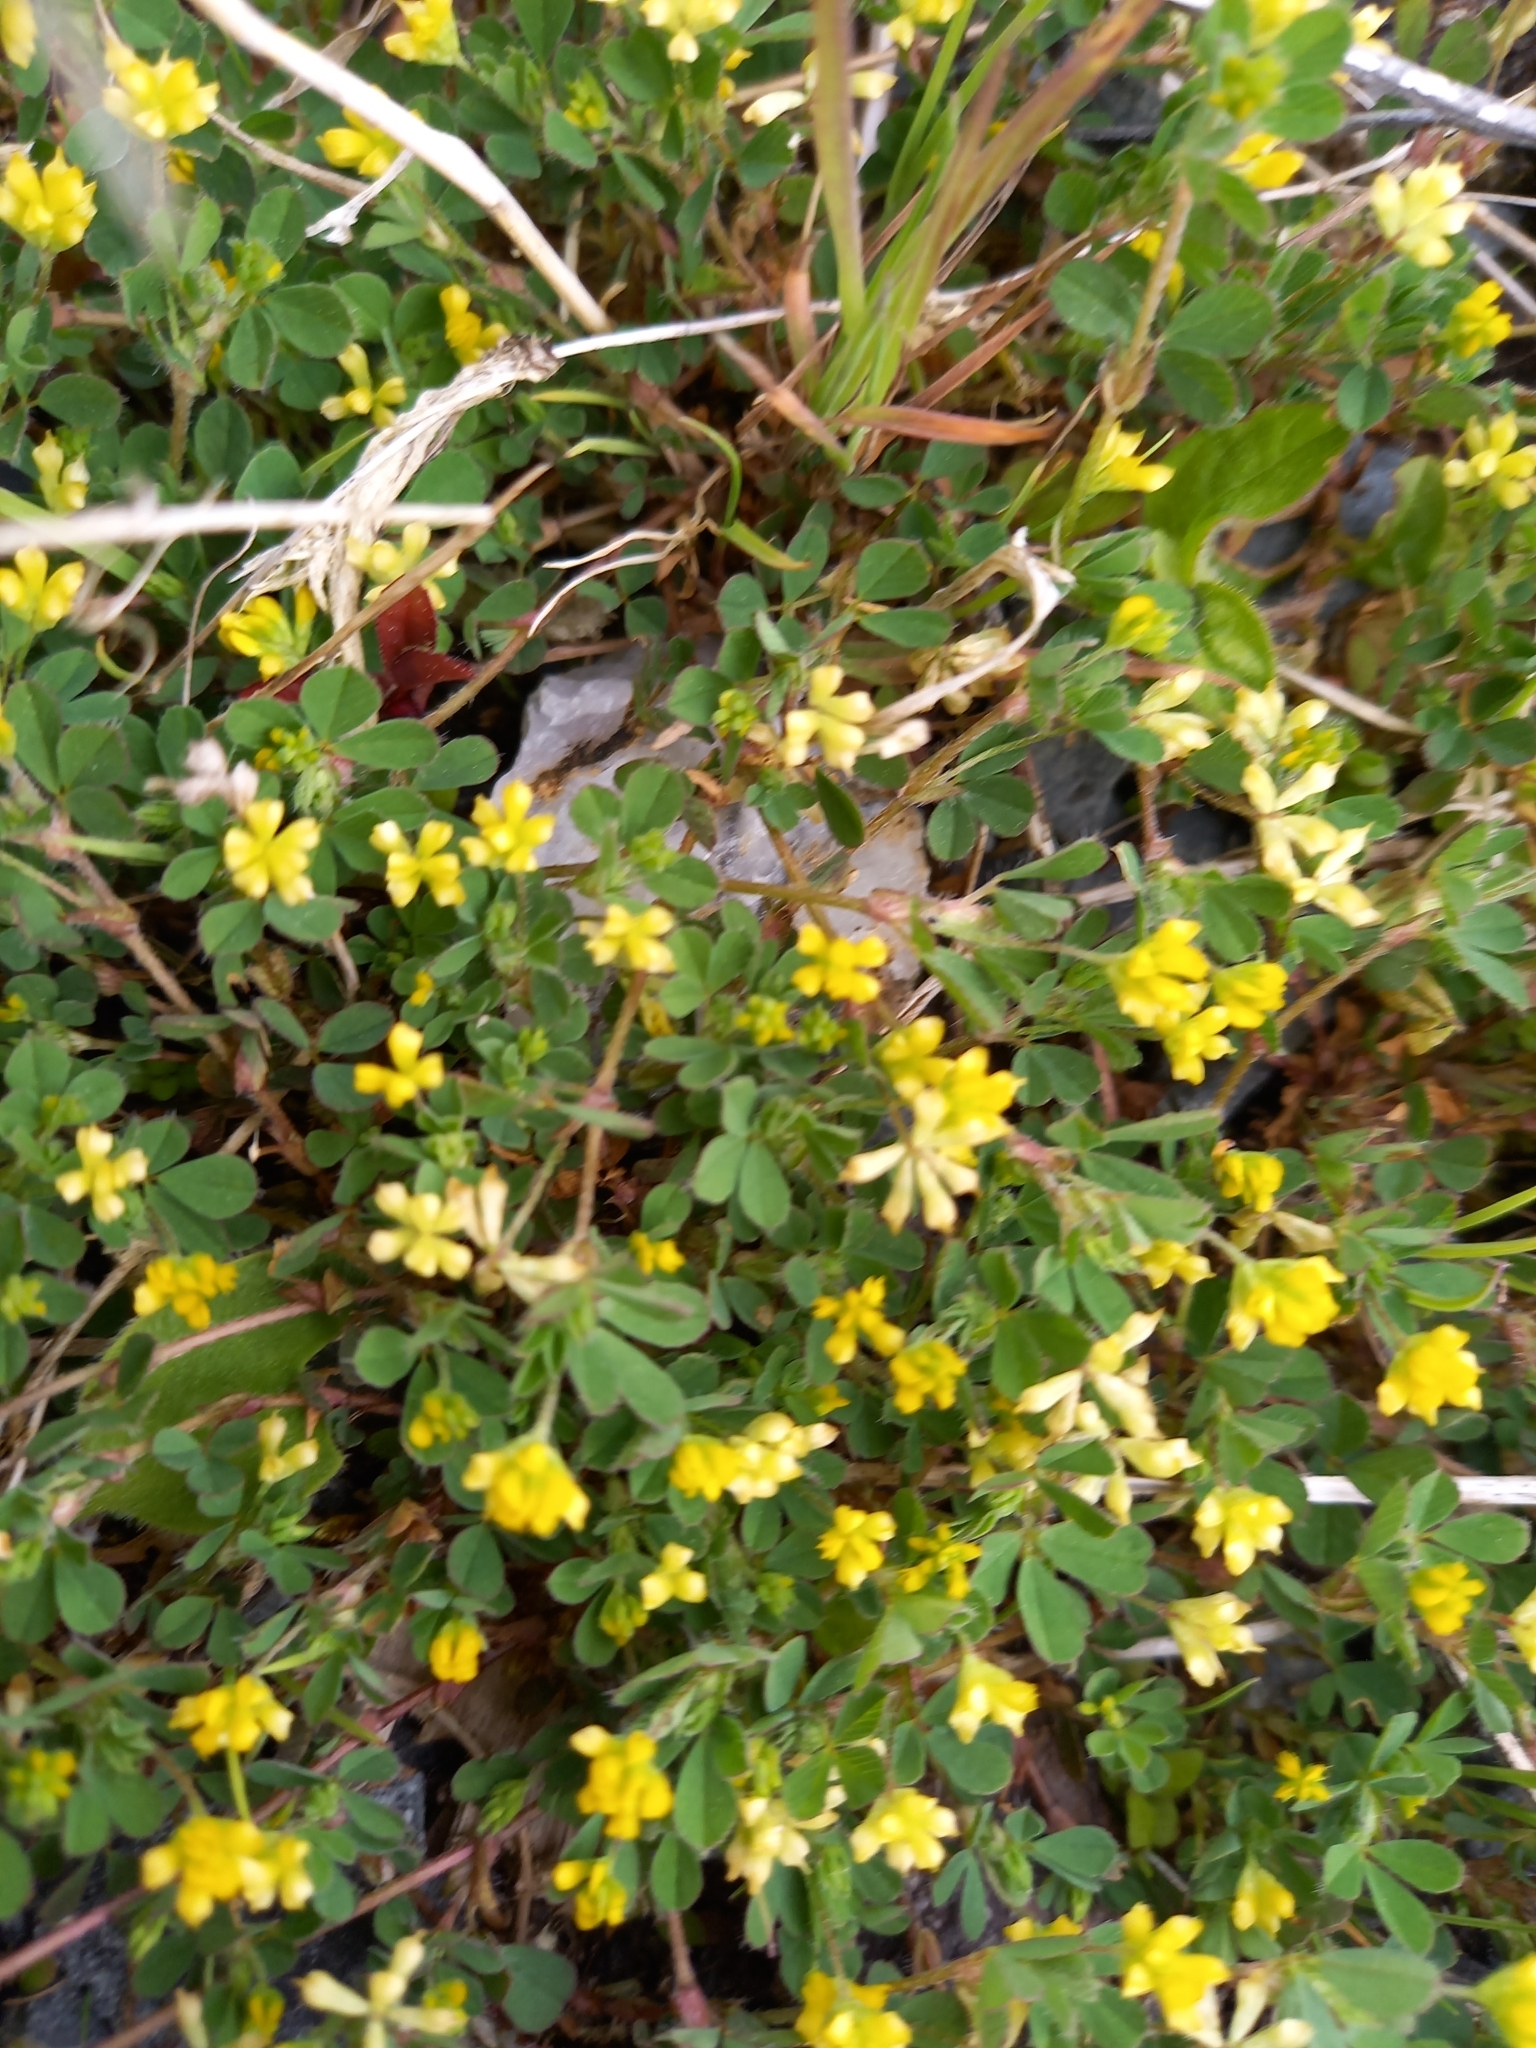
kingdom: Plantae
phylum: Tracheophyta
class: Magnoliopsida
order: Fabales
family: Fabaceae
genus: Trifolium
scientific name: Trifolium dubium
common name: Suckling clover
